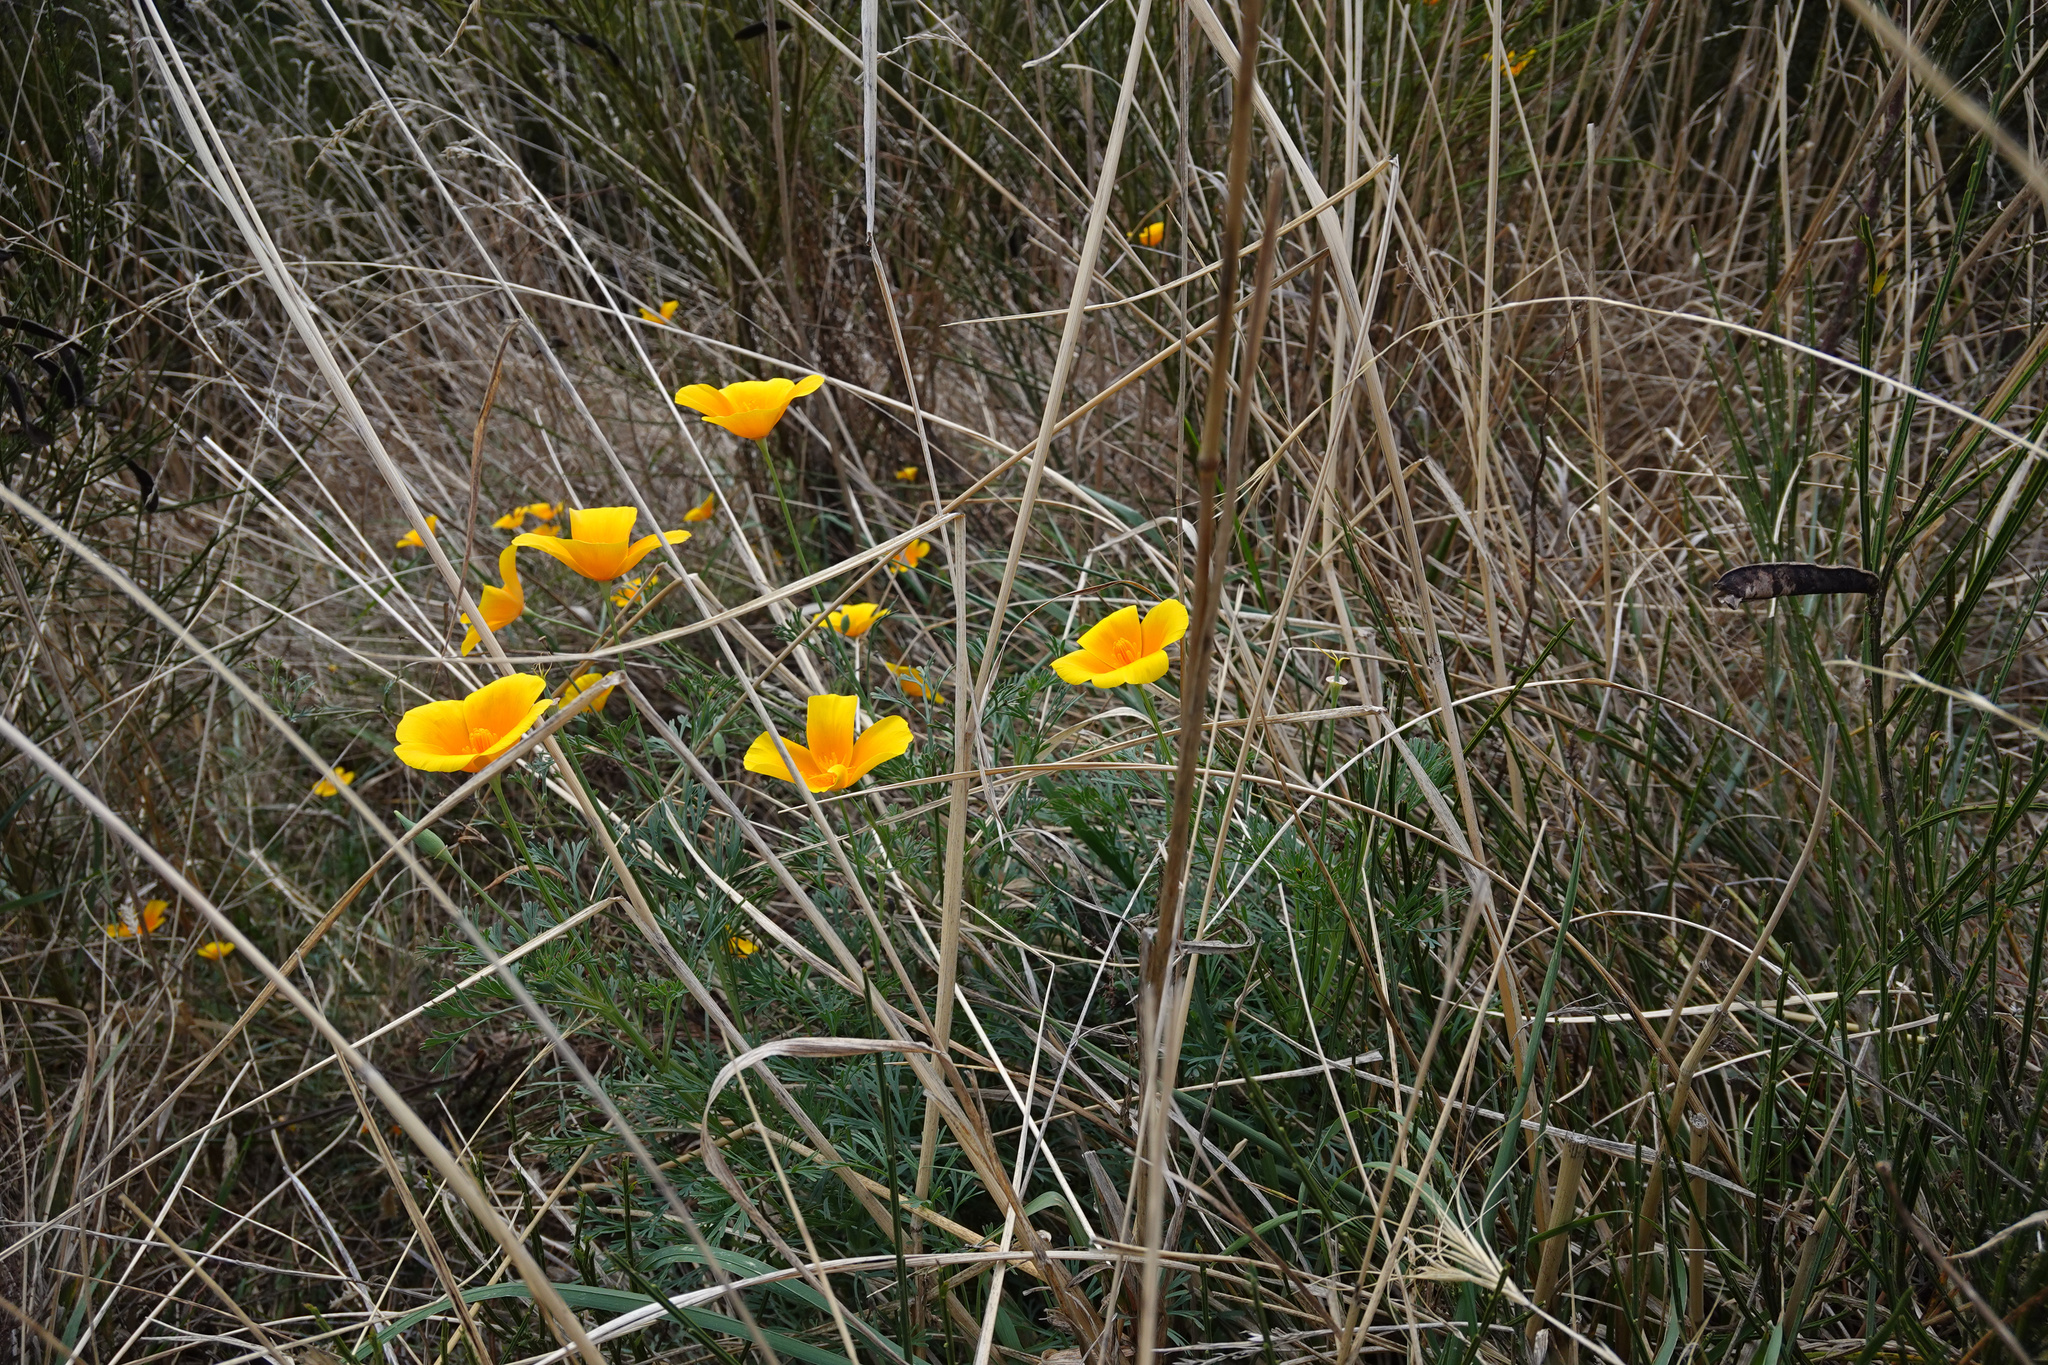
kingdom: Plantae
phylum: Tracheophyta
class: Magnoliopsida
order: Ranunculales
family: Papaveraceae
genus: Eschscholzia
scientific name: Eschscholzia californica
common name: California poppy
